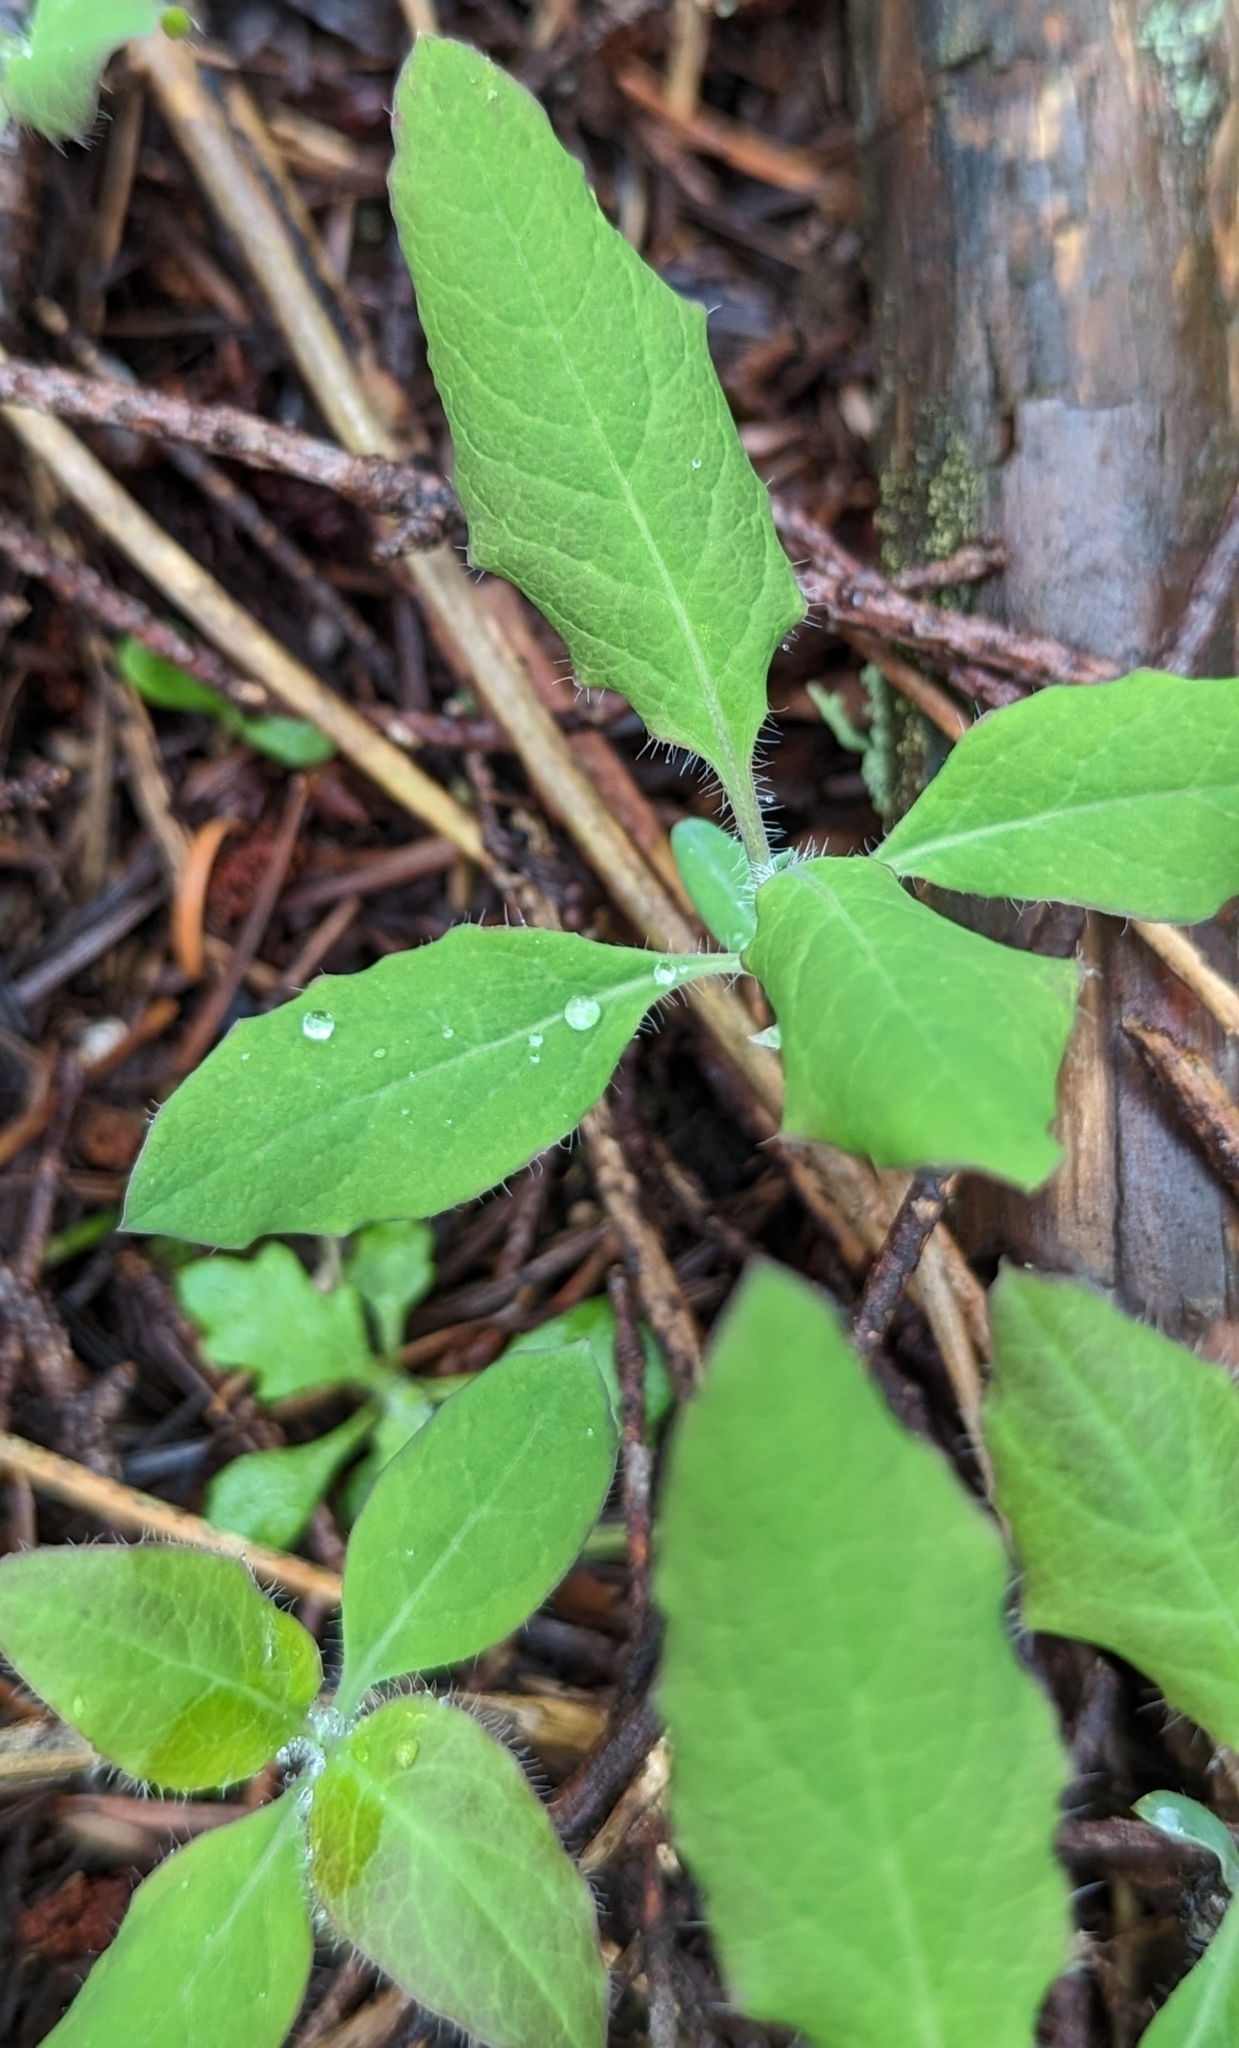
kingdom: Plantae
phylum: Tracheophyta
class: Magnoliopsida
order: Dipsacales
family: Caprifoliaceae
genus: Lonicera
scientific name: Lonicera ciliosa
